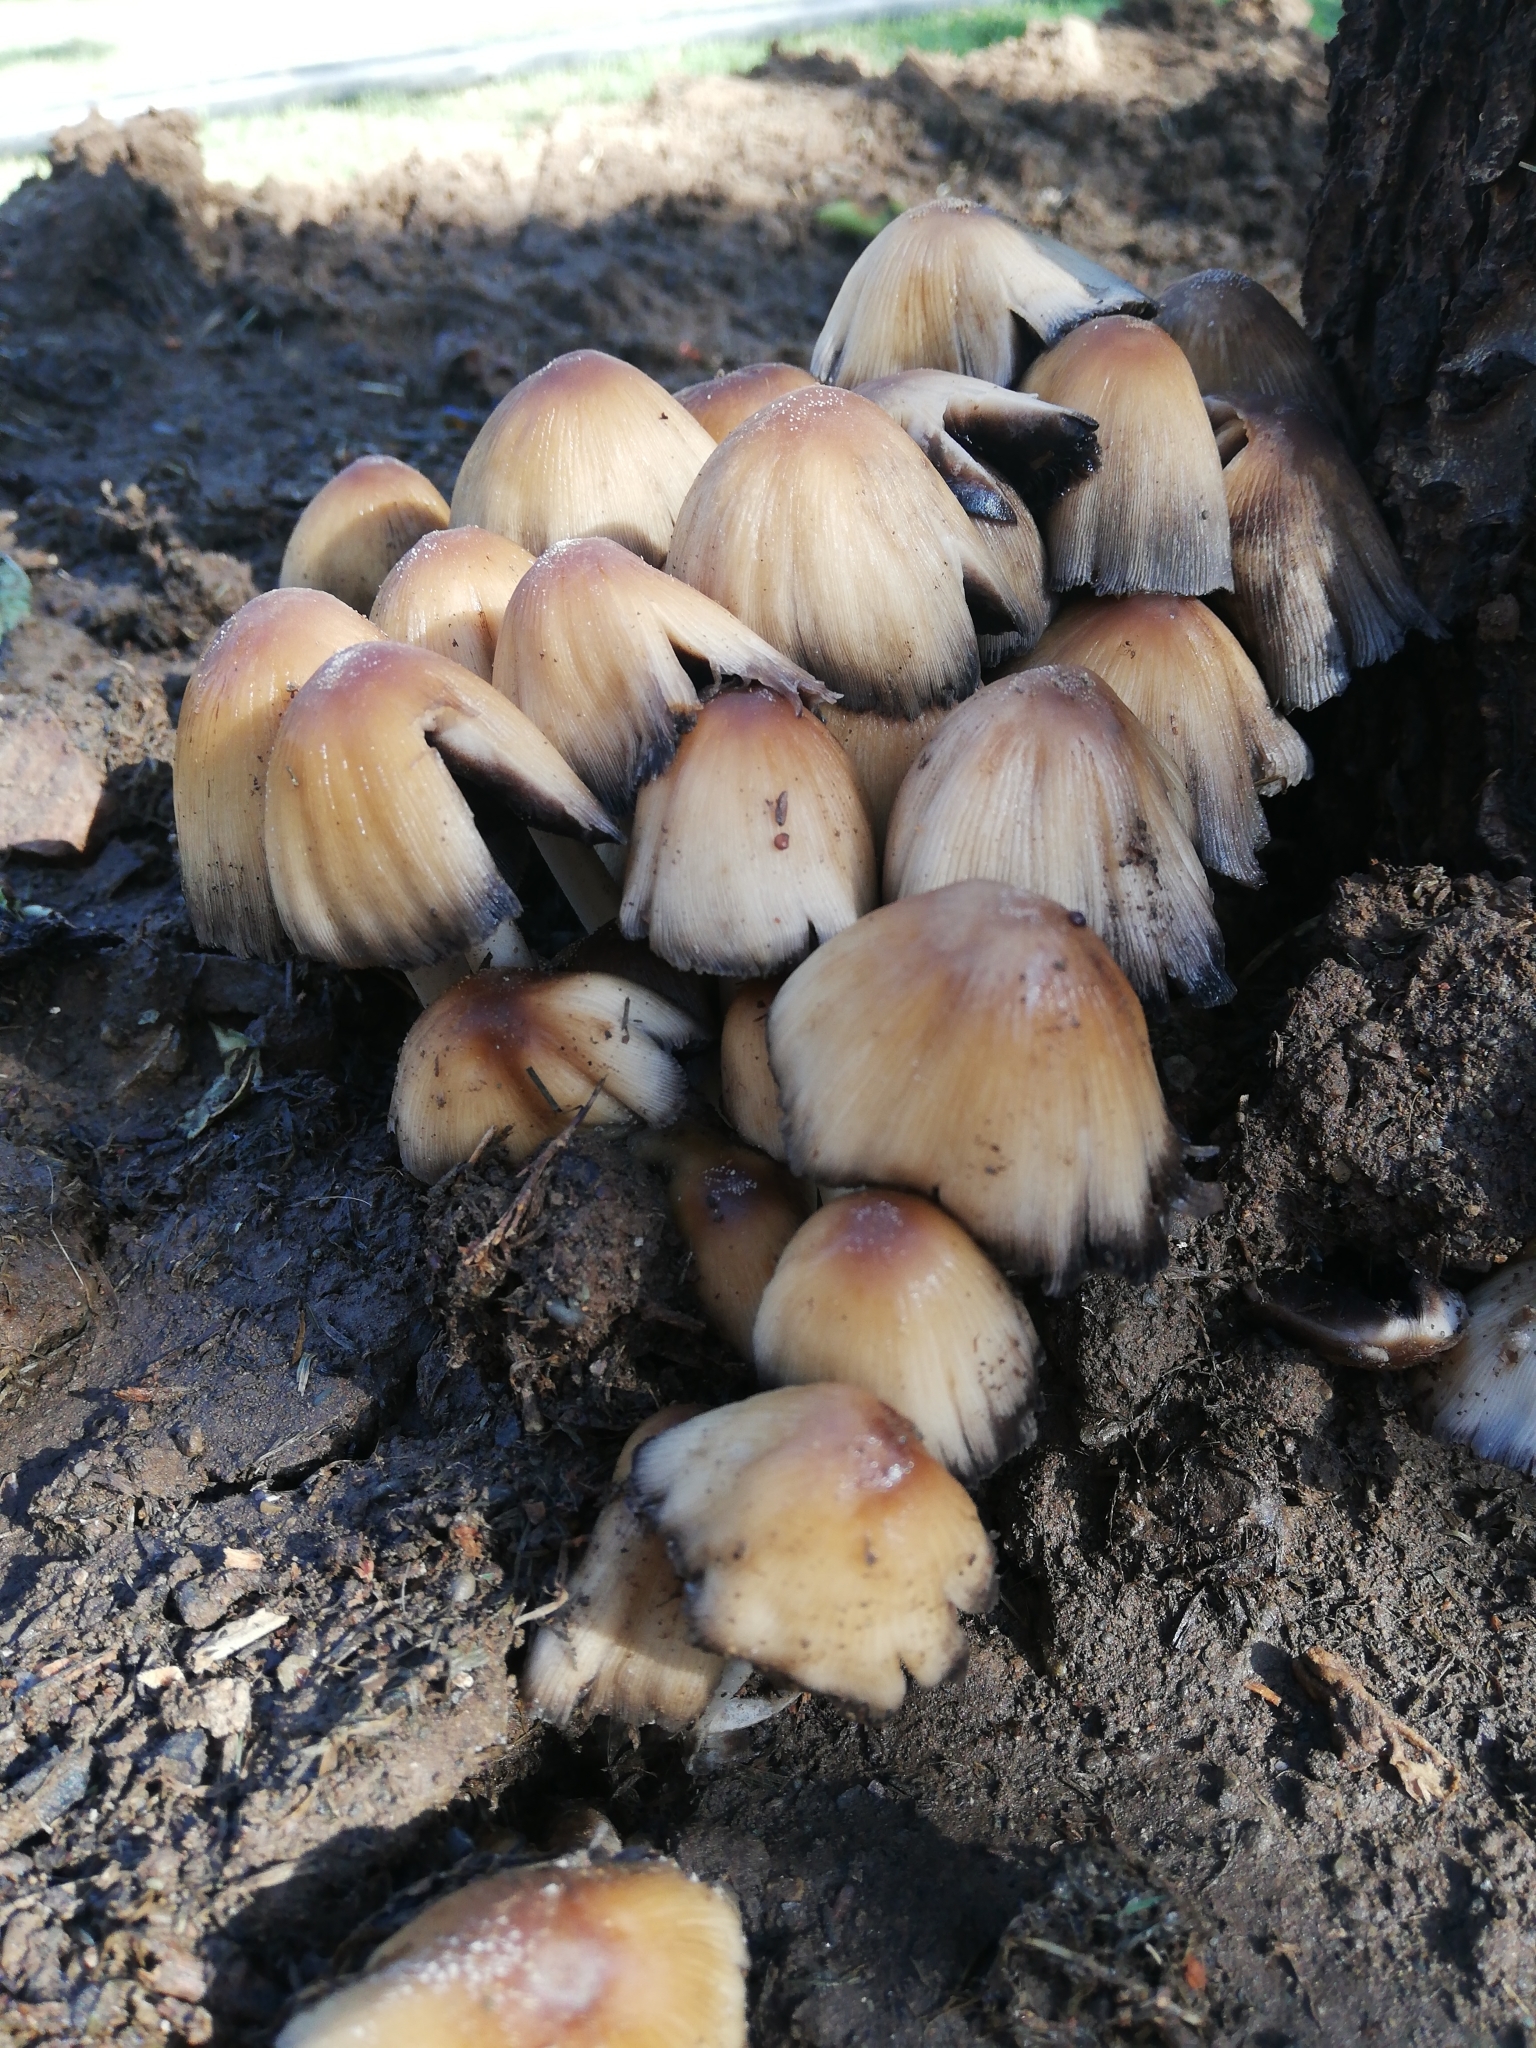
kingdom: Fungi
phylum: Basidiomycota
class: Agaricomycetes
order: Agaricales
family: Psathyrellaceae
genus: Coprinellus
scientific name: Coprinellus micaceus
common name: Glistening ink-cap
